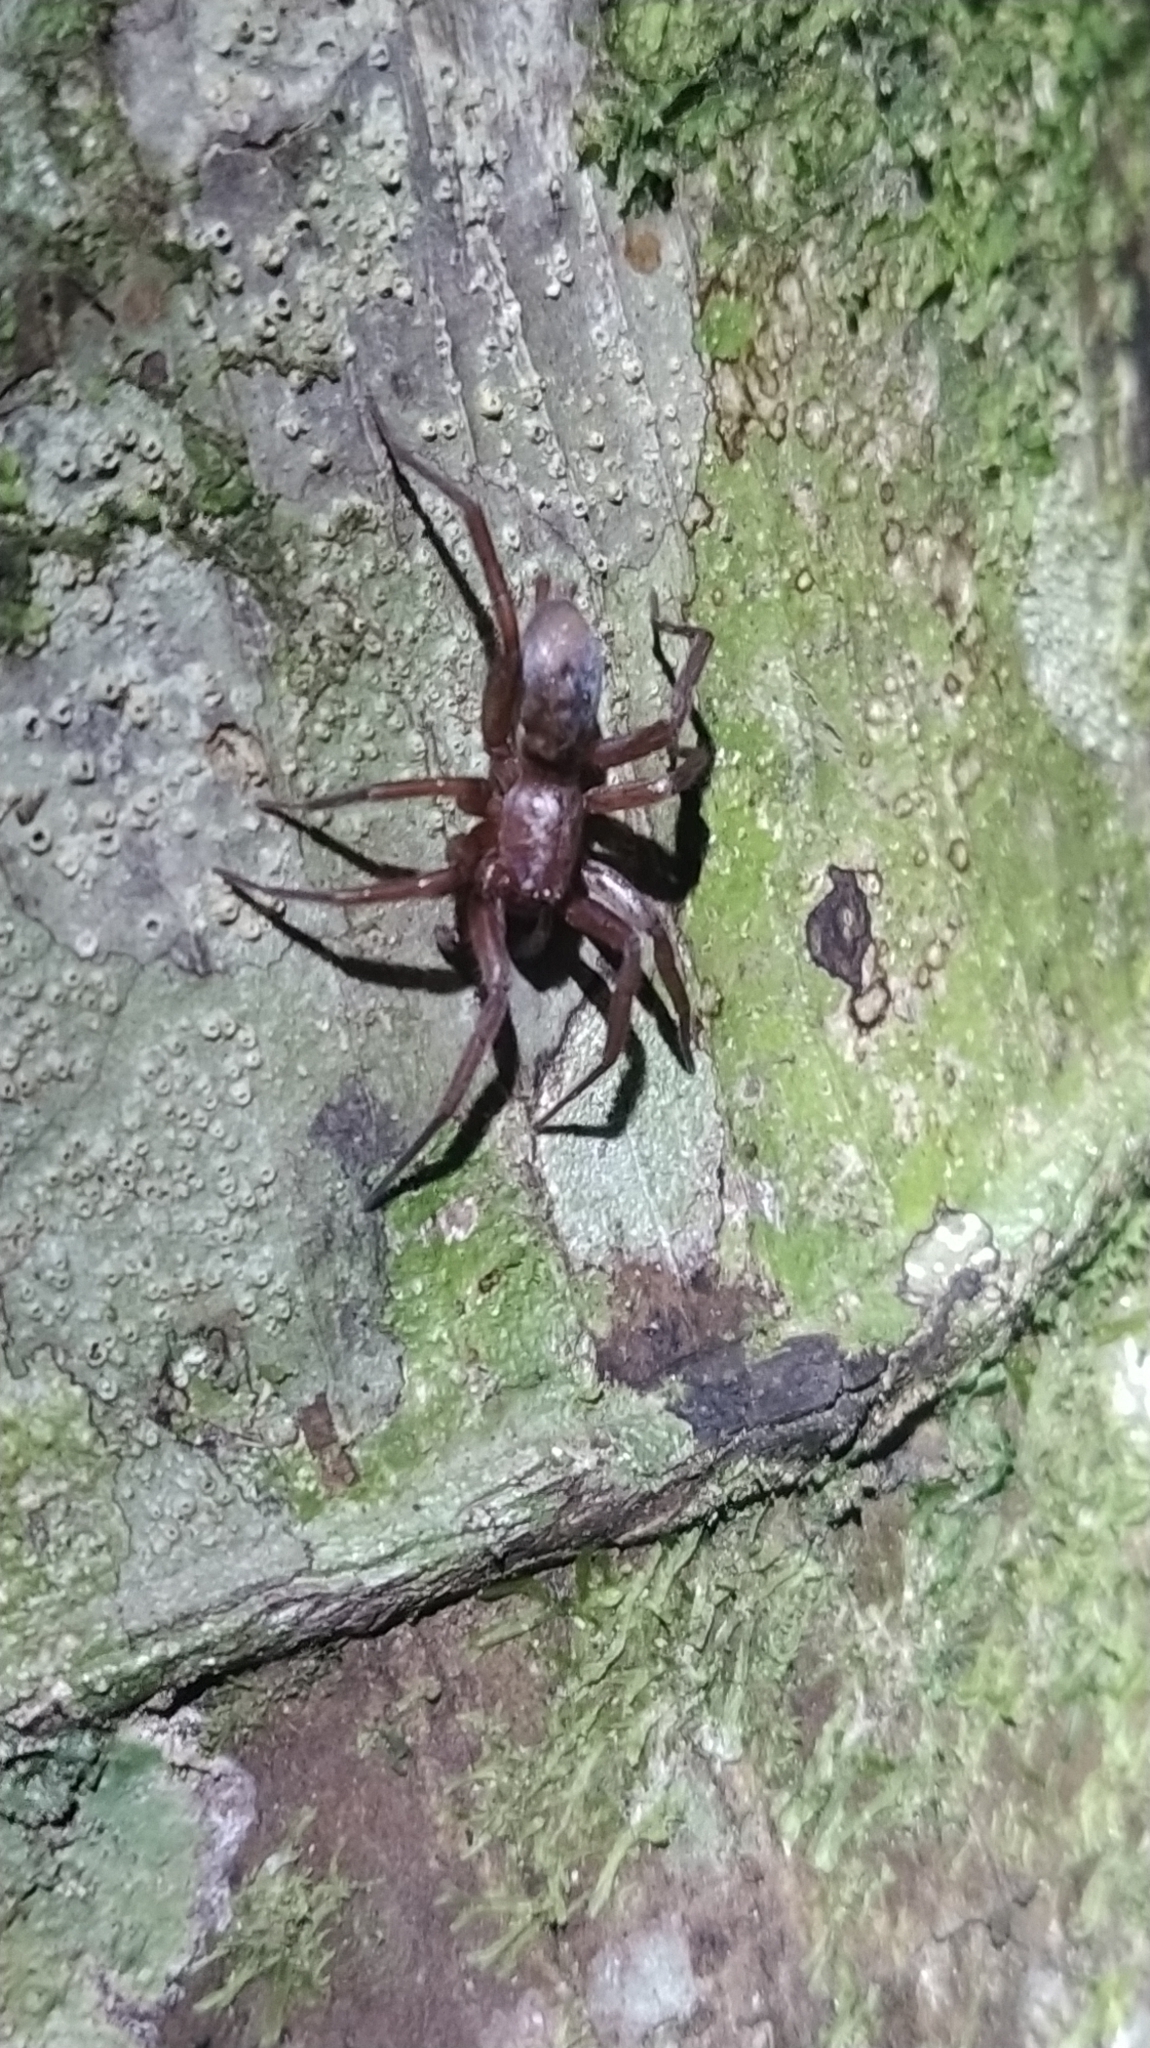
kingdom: Animalia
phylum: Arthropoda
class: Arachnida
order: Araneae
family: Gnaphosidae
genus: Hypodrassodes
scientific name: Hypodrassodes maoricus
